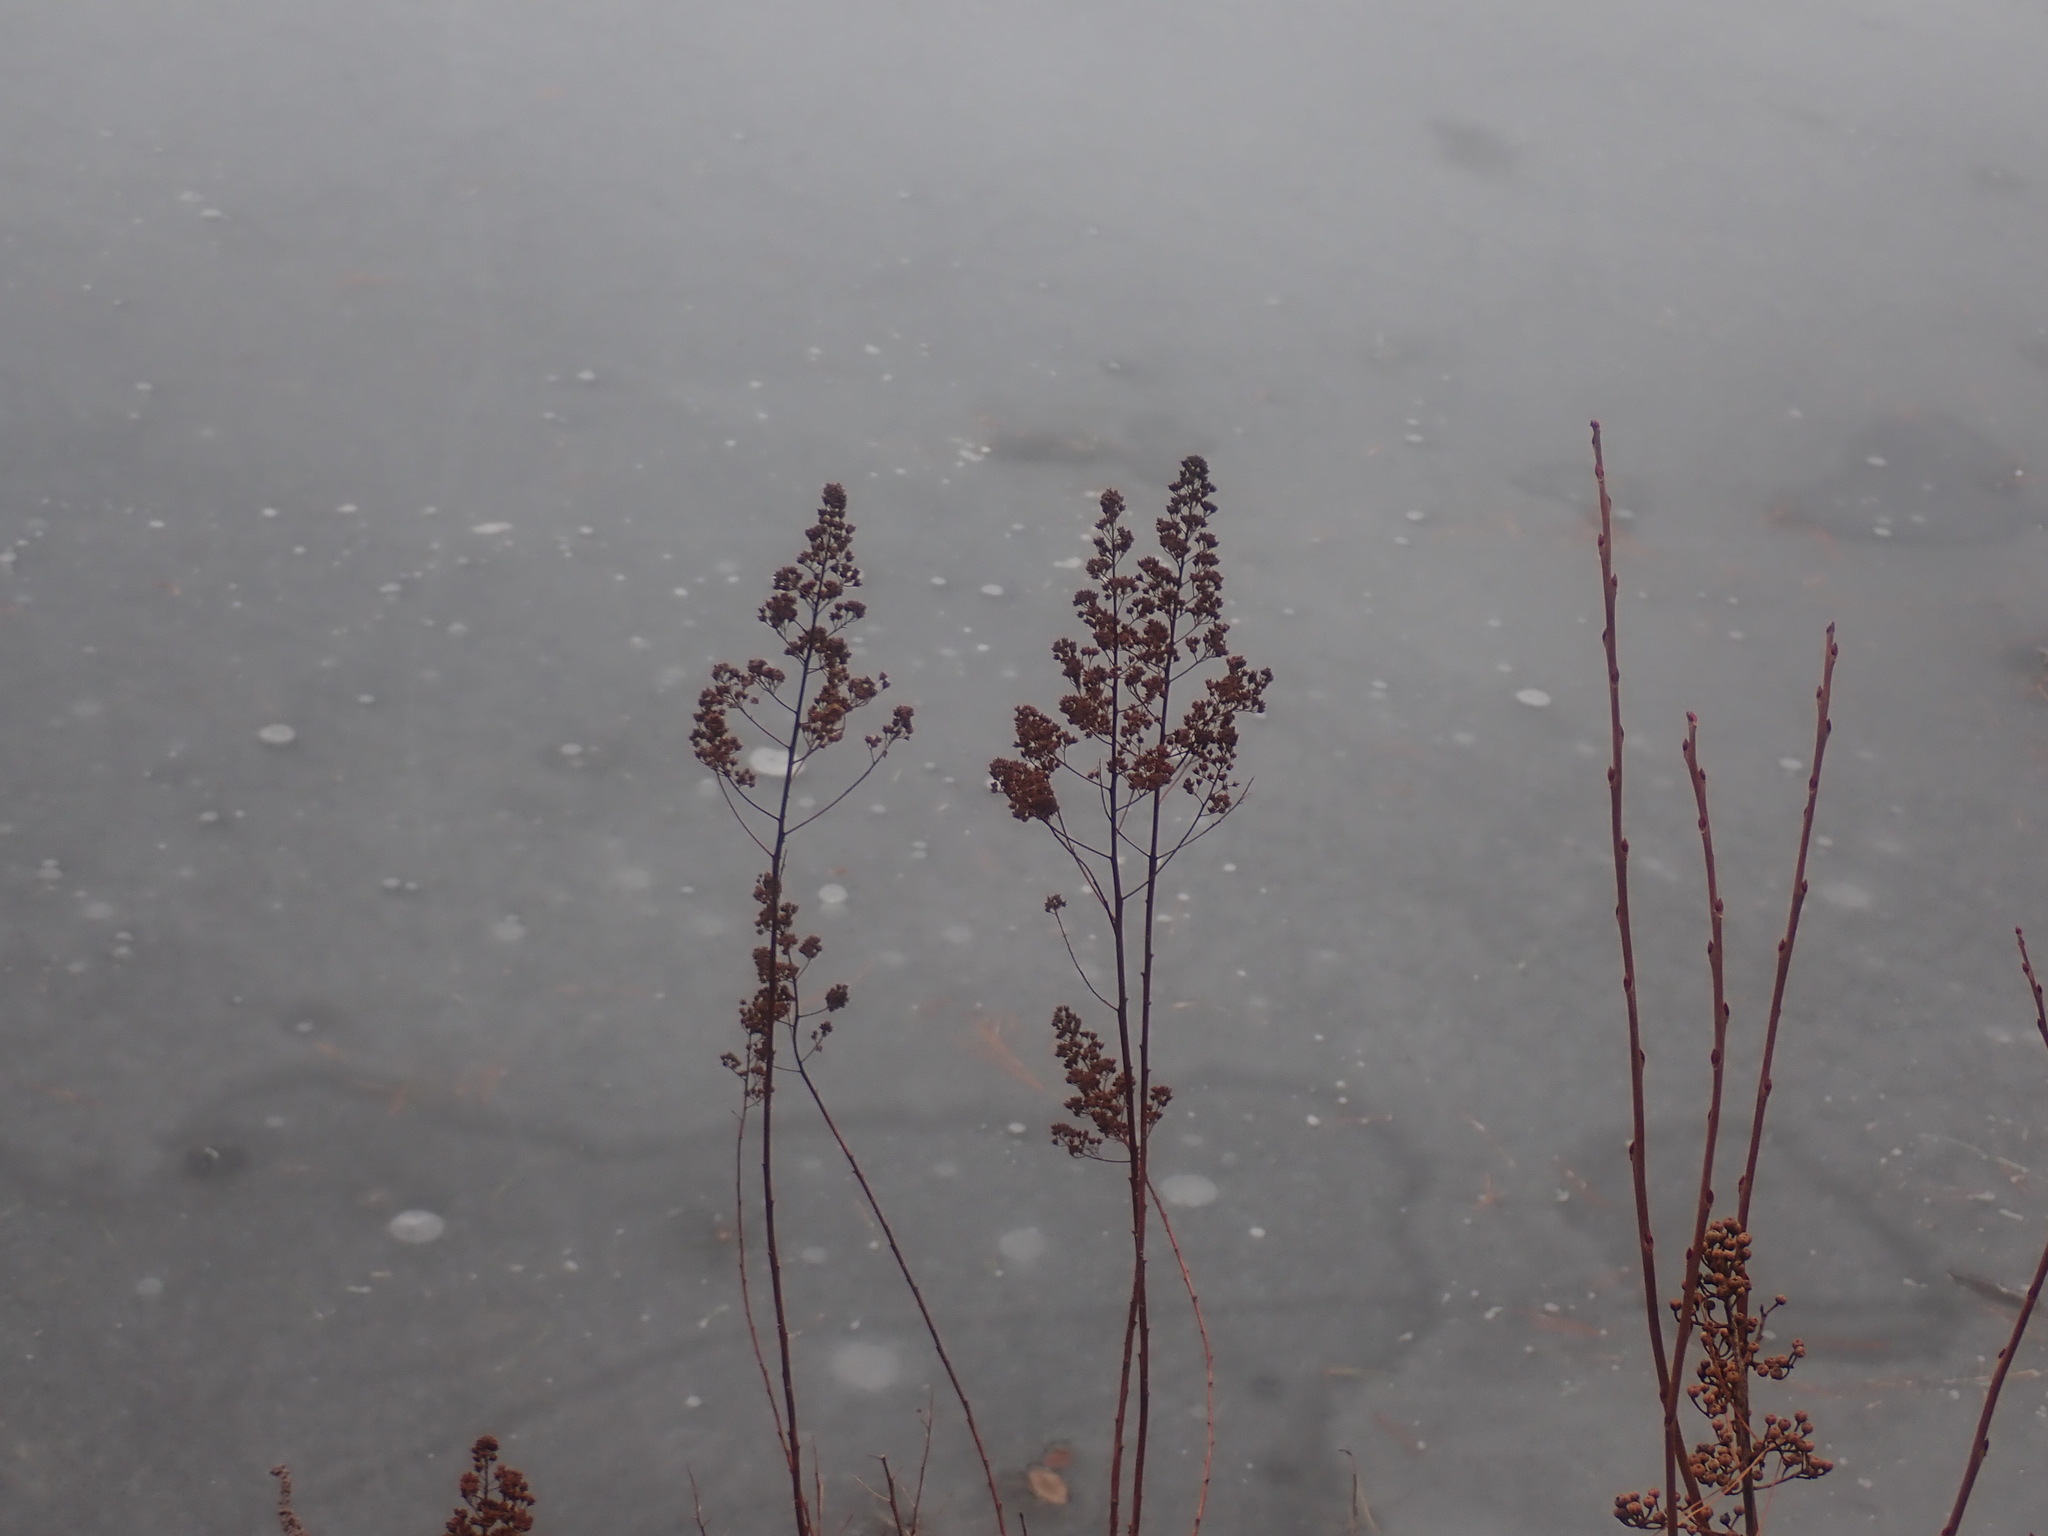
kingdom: Plantae
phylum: Tracheophyta
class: Magnoliopsida
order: Rosales
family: Rosaceae
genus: Spiraea
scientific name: Spiraea alba
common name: Pale bridewort
